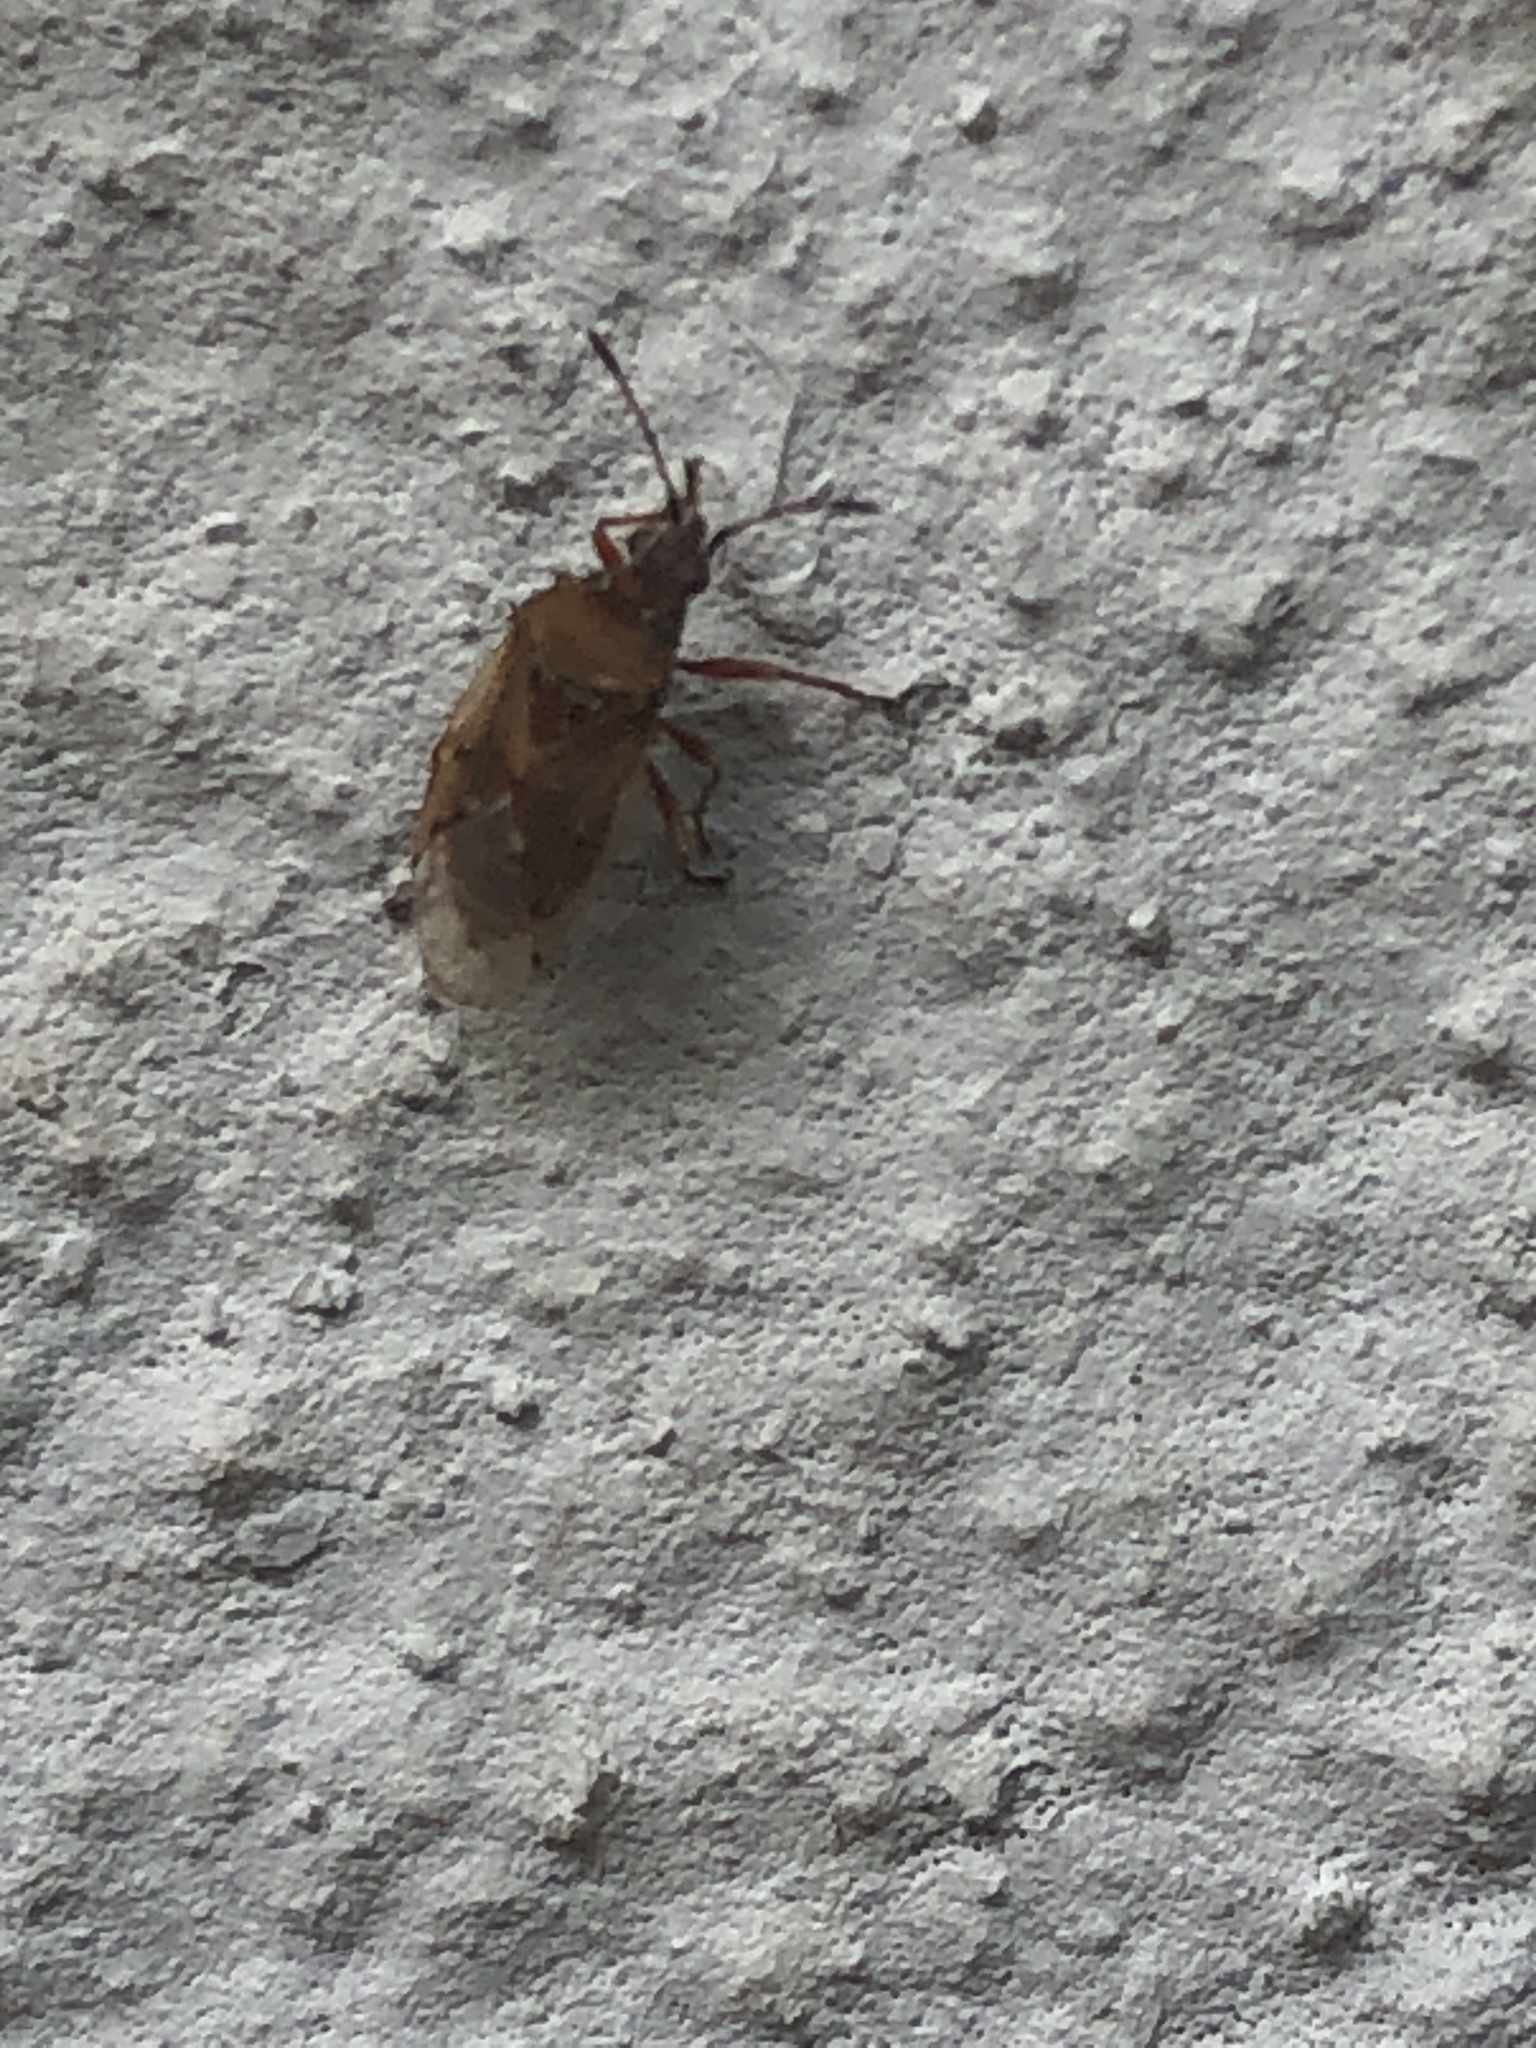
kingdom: Animalia
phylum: Arthropoda
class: Insecta
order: Hemiptera
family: Lygaeidae
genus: Kleidocerys
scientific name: Kleidocerys resedae
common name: Birch catkin bug
